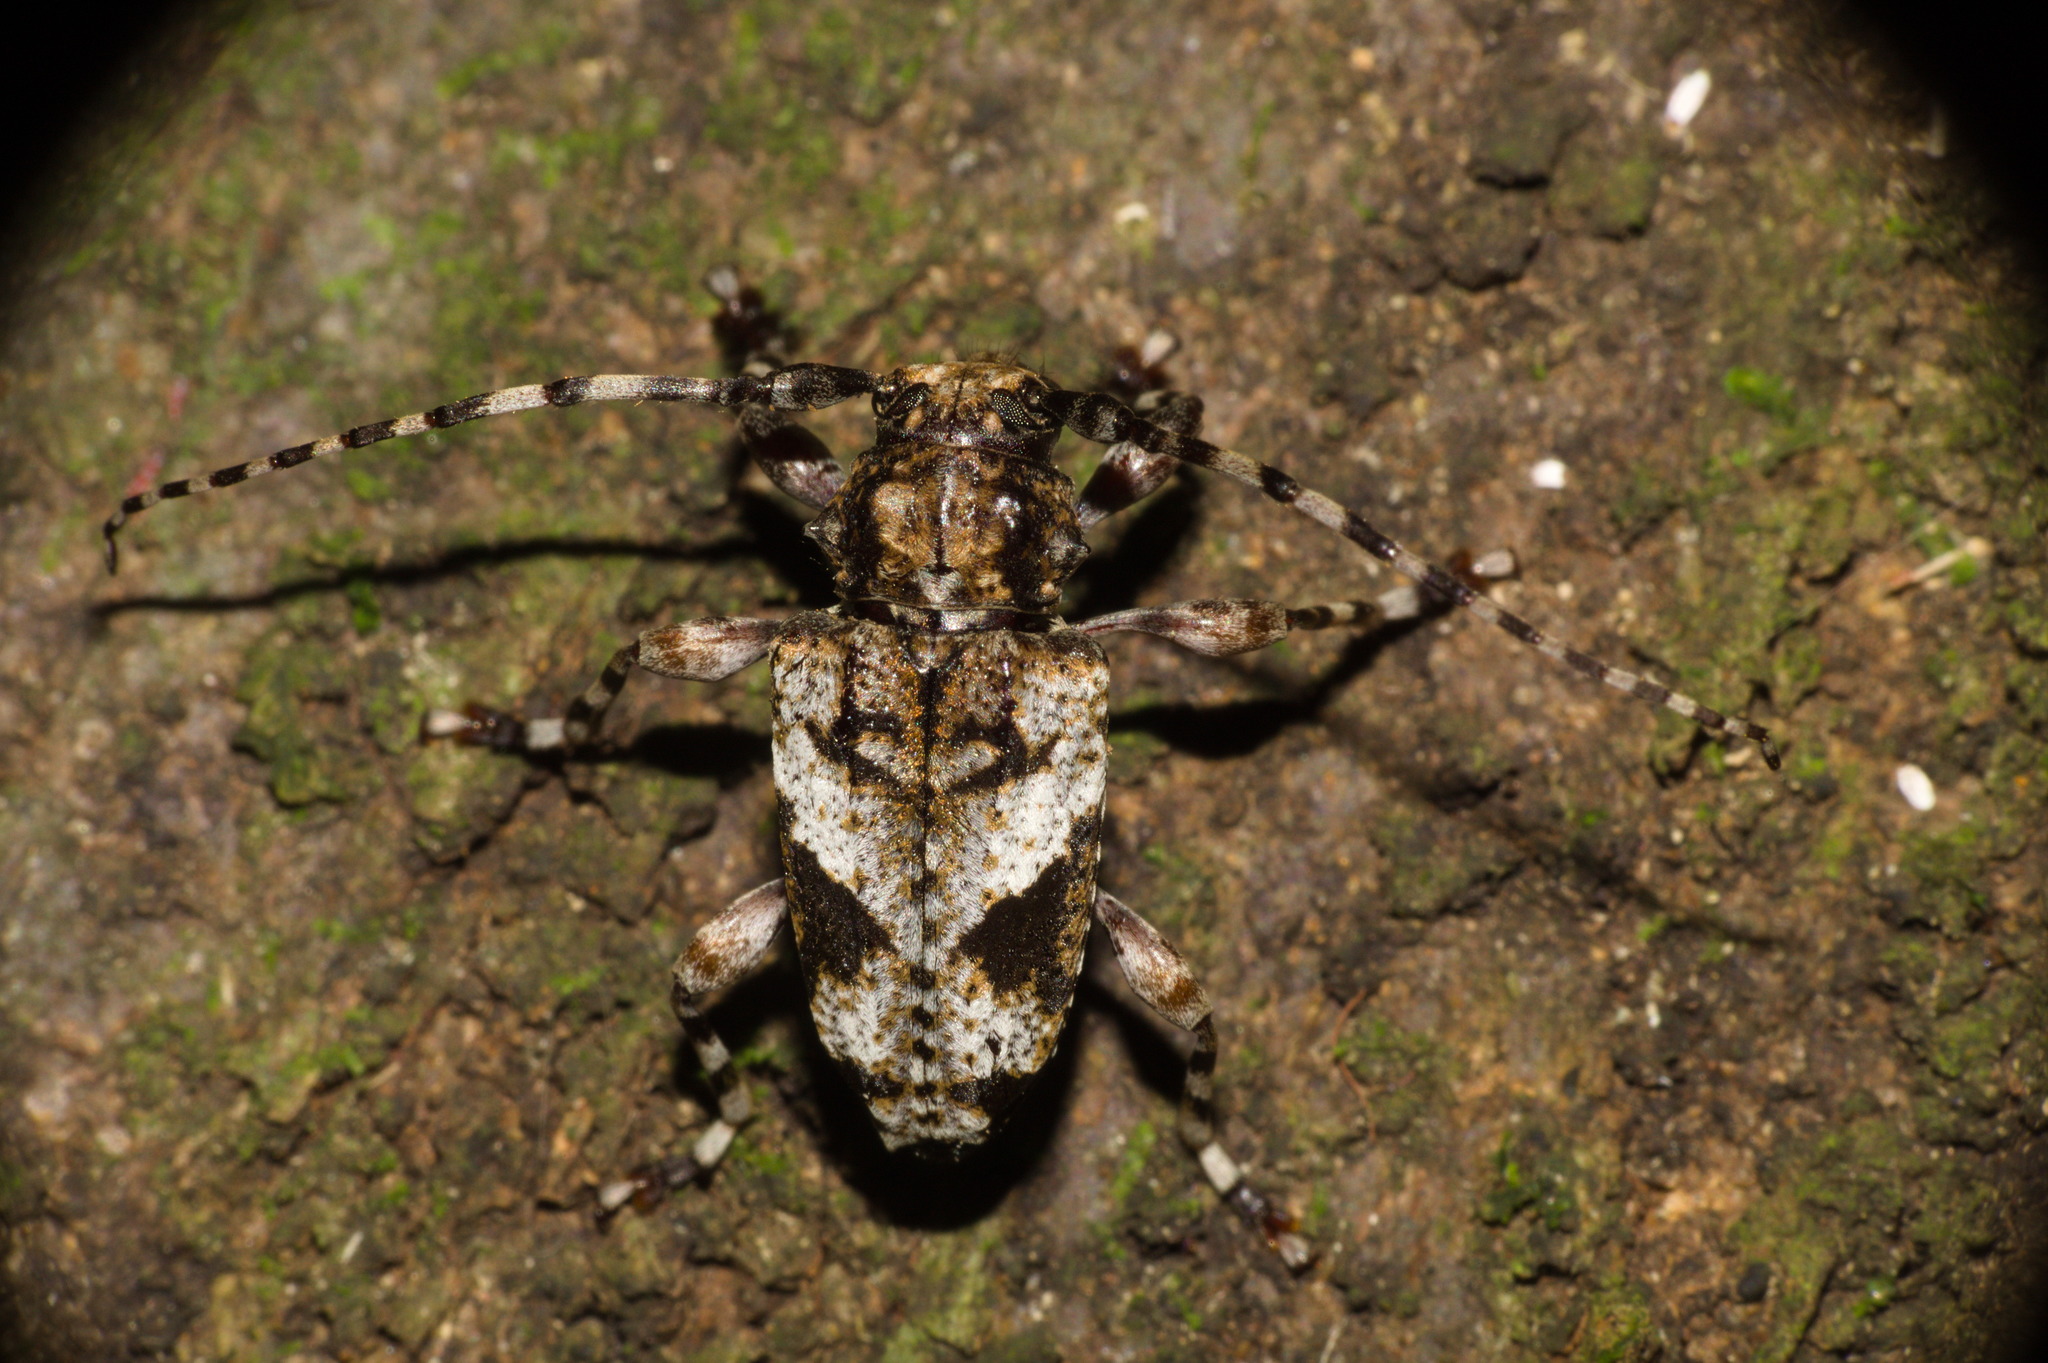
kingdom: Animalia
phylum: Arthropoda
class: Insecta
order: Coleoptera
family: Cerambycidae
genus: Psapharochrus
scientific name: Psapharochrus jaspideus
